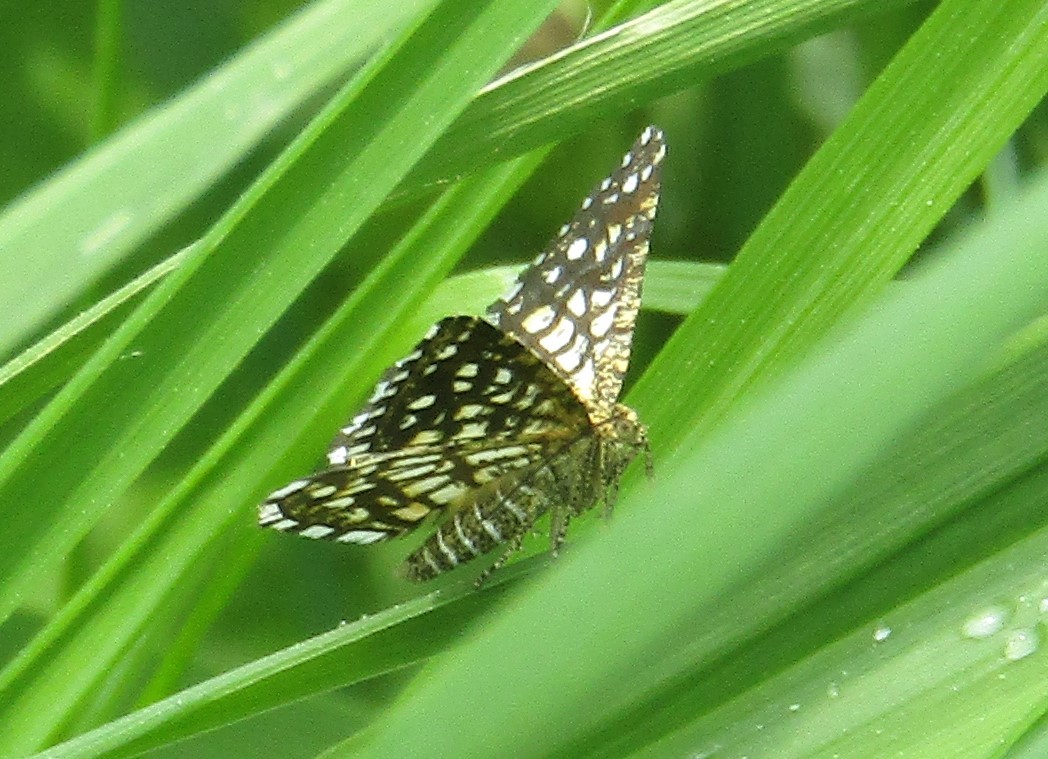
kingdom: Animalia
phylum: Arthropoda
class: Insecta
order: Lepidoptera
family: Geometridae
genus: Chiasmia
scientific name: Chiasmia clathrata
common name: Latticed heath
